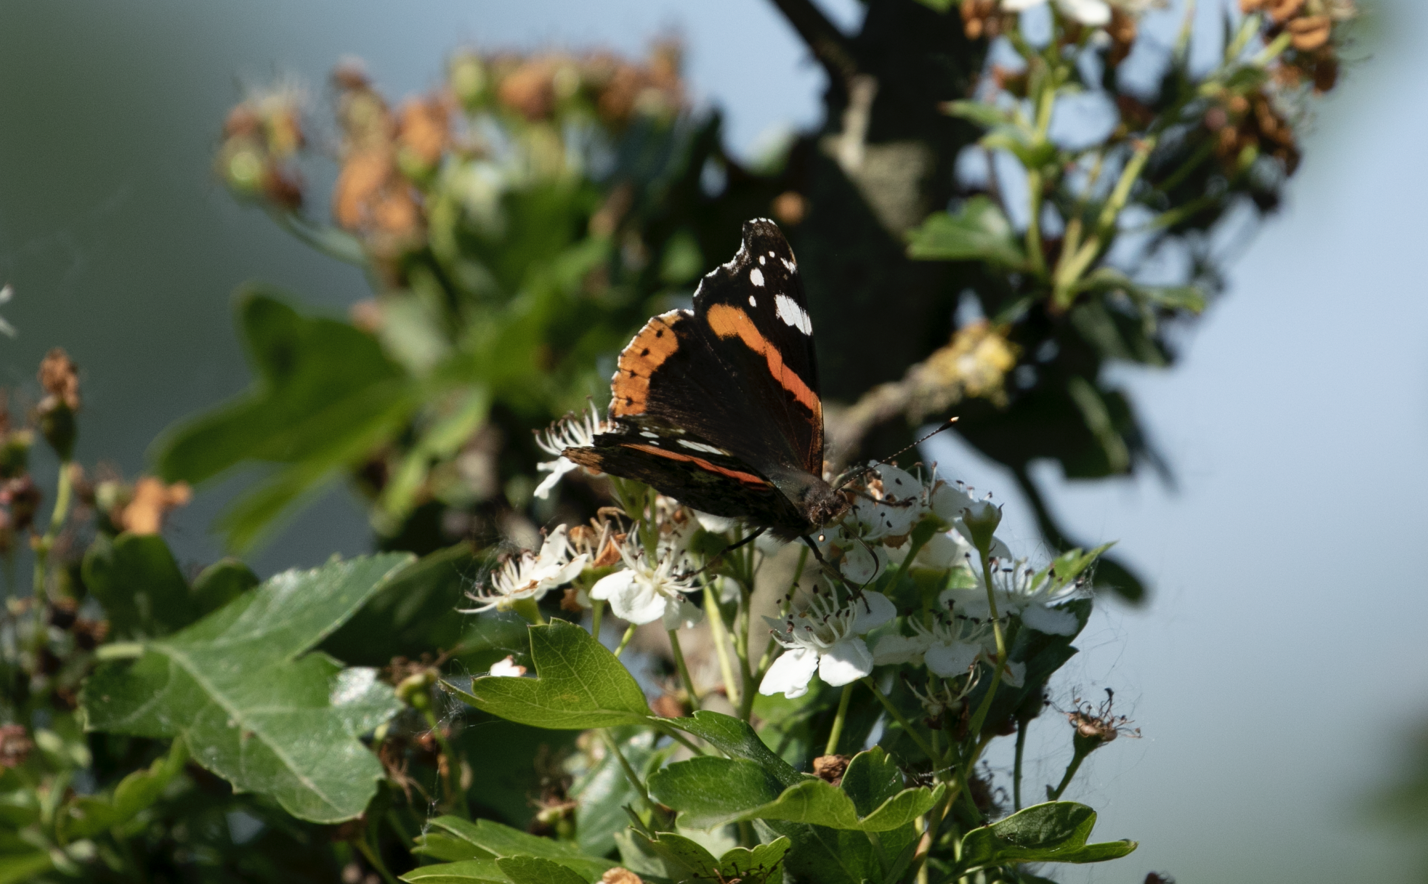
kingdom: Animalia
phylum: Arthropoda
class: Insecta
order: Lepidoptera
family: Nymphalidae
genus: Vanessa
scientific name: Vanessa atalanta
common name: Red admiral
